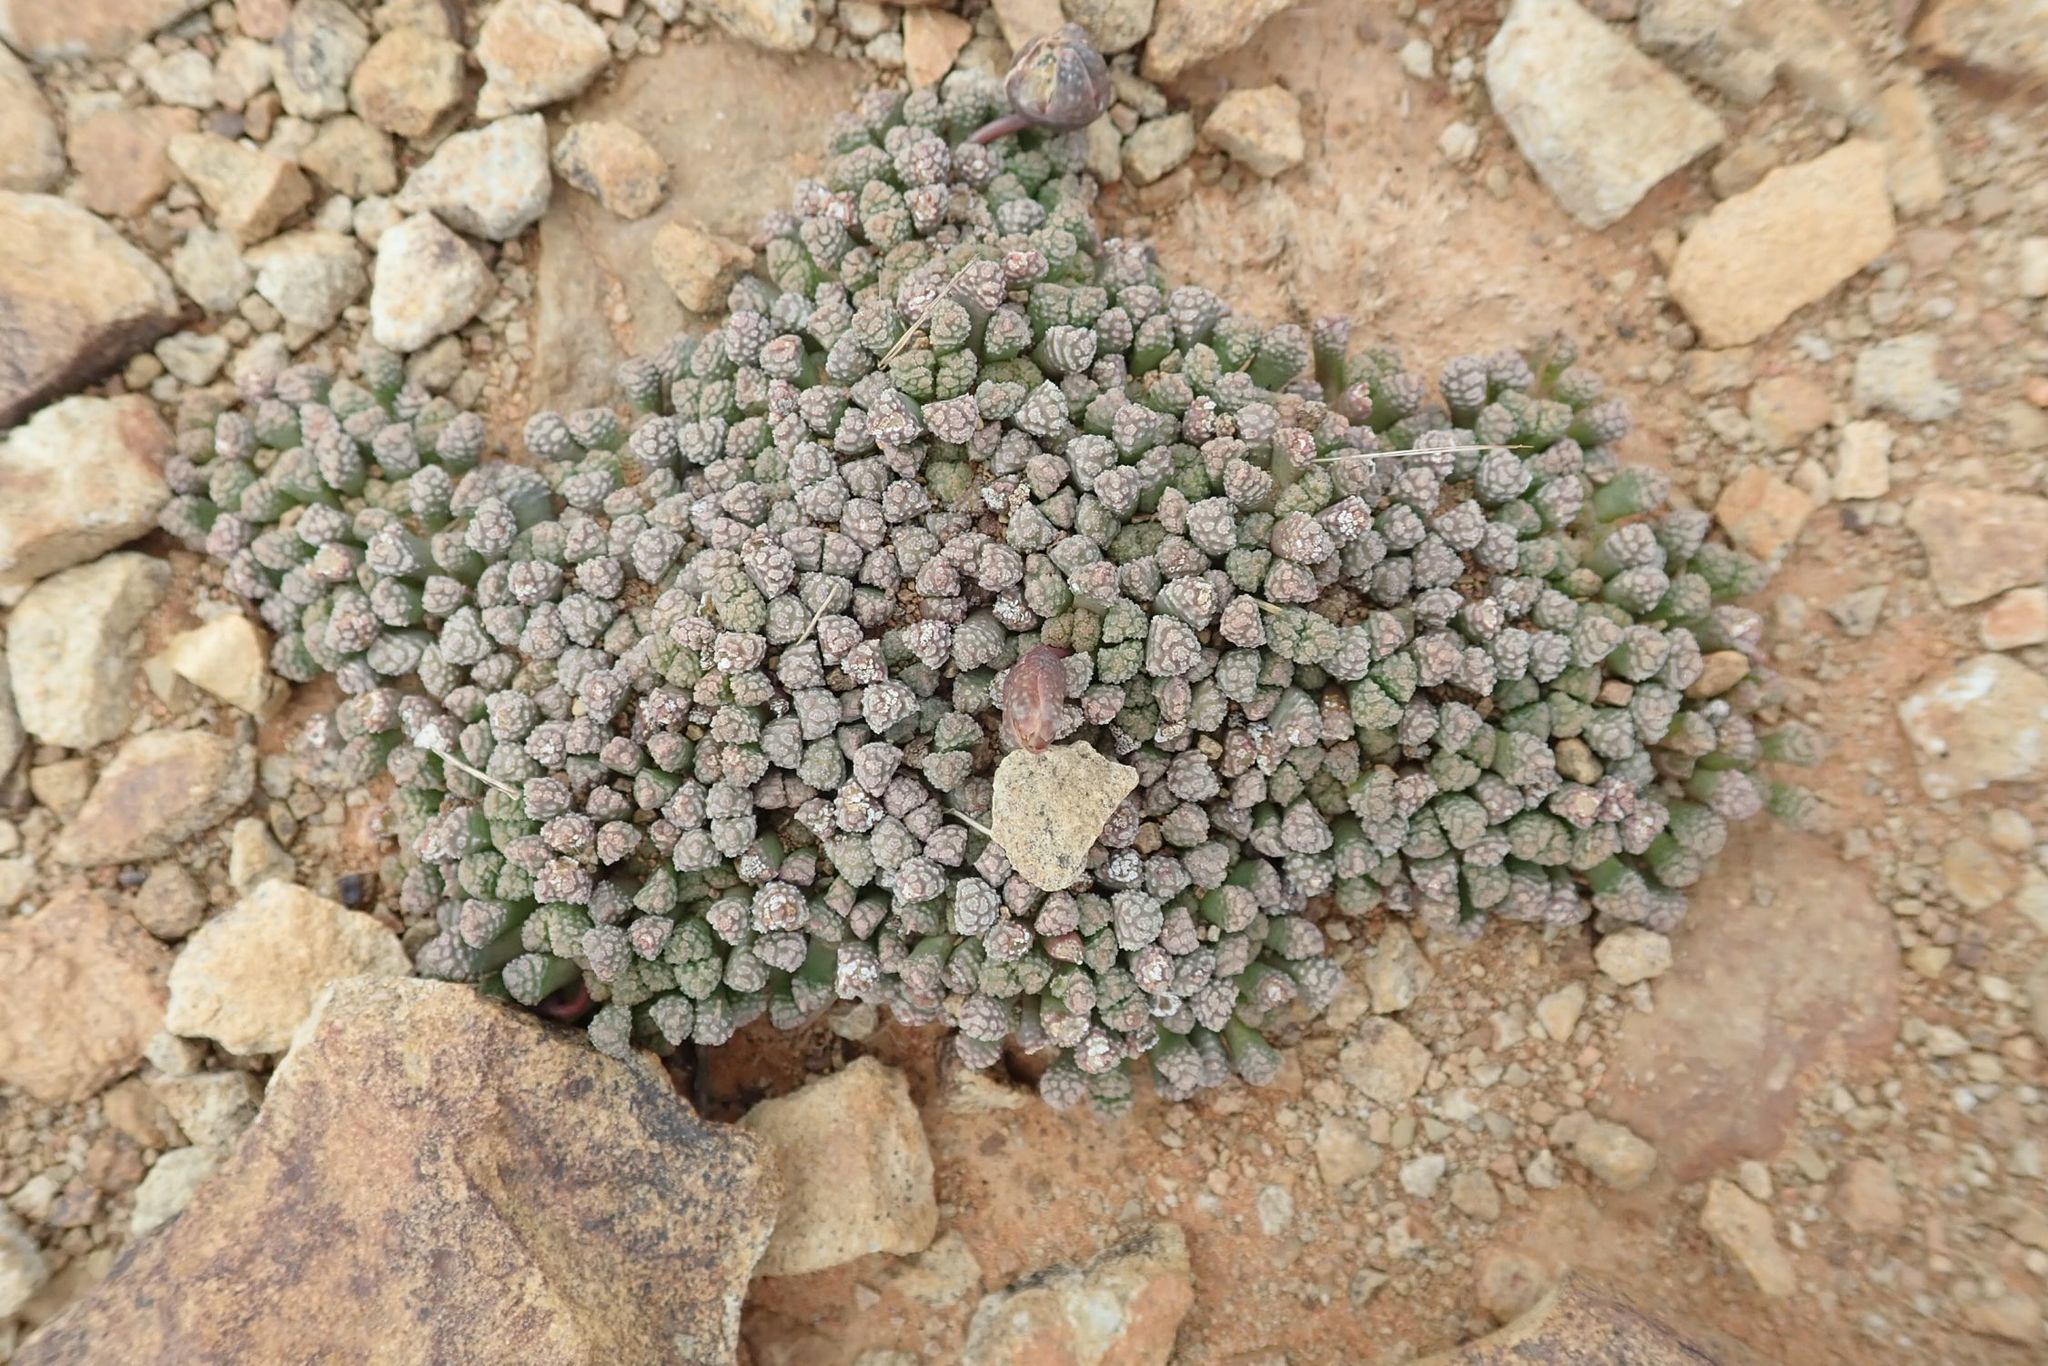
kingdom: Plantae
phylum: Tracheophyta
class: Magnoliopsida
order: Caryophyllales
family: Aizoaceae
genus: Neohenricia
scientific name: Neohenricia sibbettii
